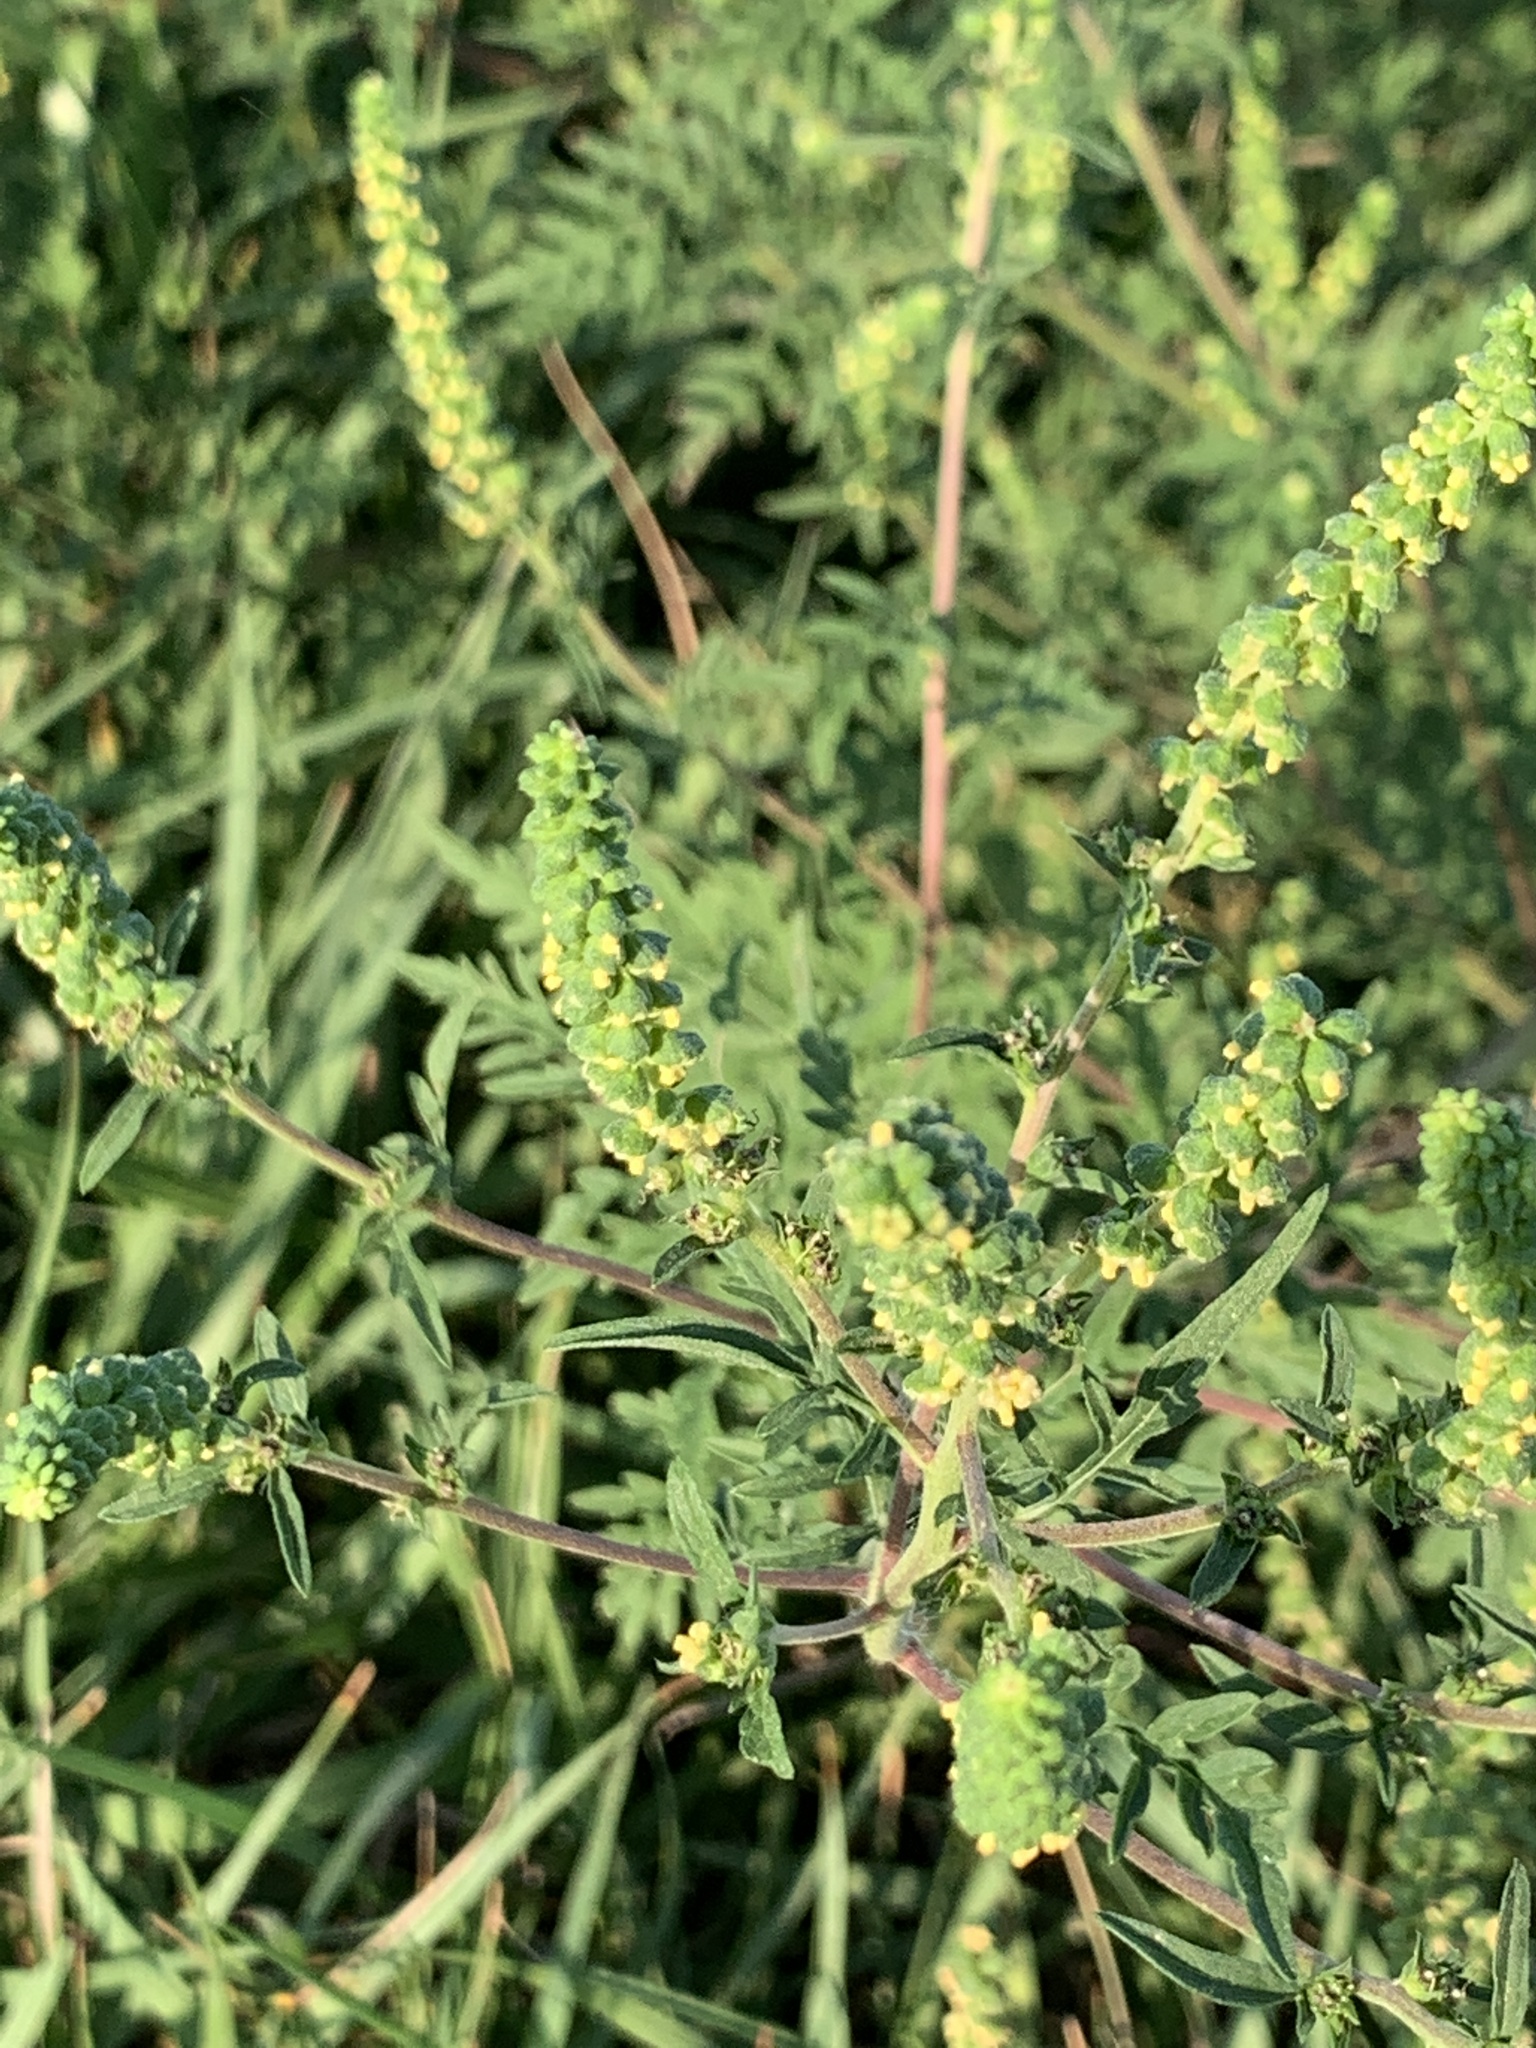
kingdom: Plantae
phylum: Tracheophyta
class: Magnoliopsida
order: Asterales
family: Asteraceae
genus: Ambrosia
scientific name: Ambrosia artemisiifolia
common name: Annual ragweed
